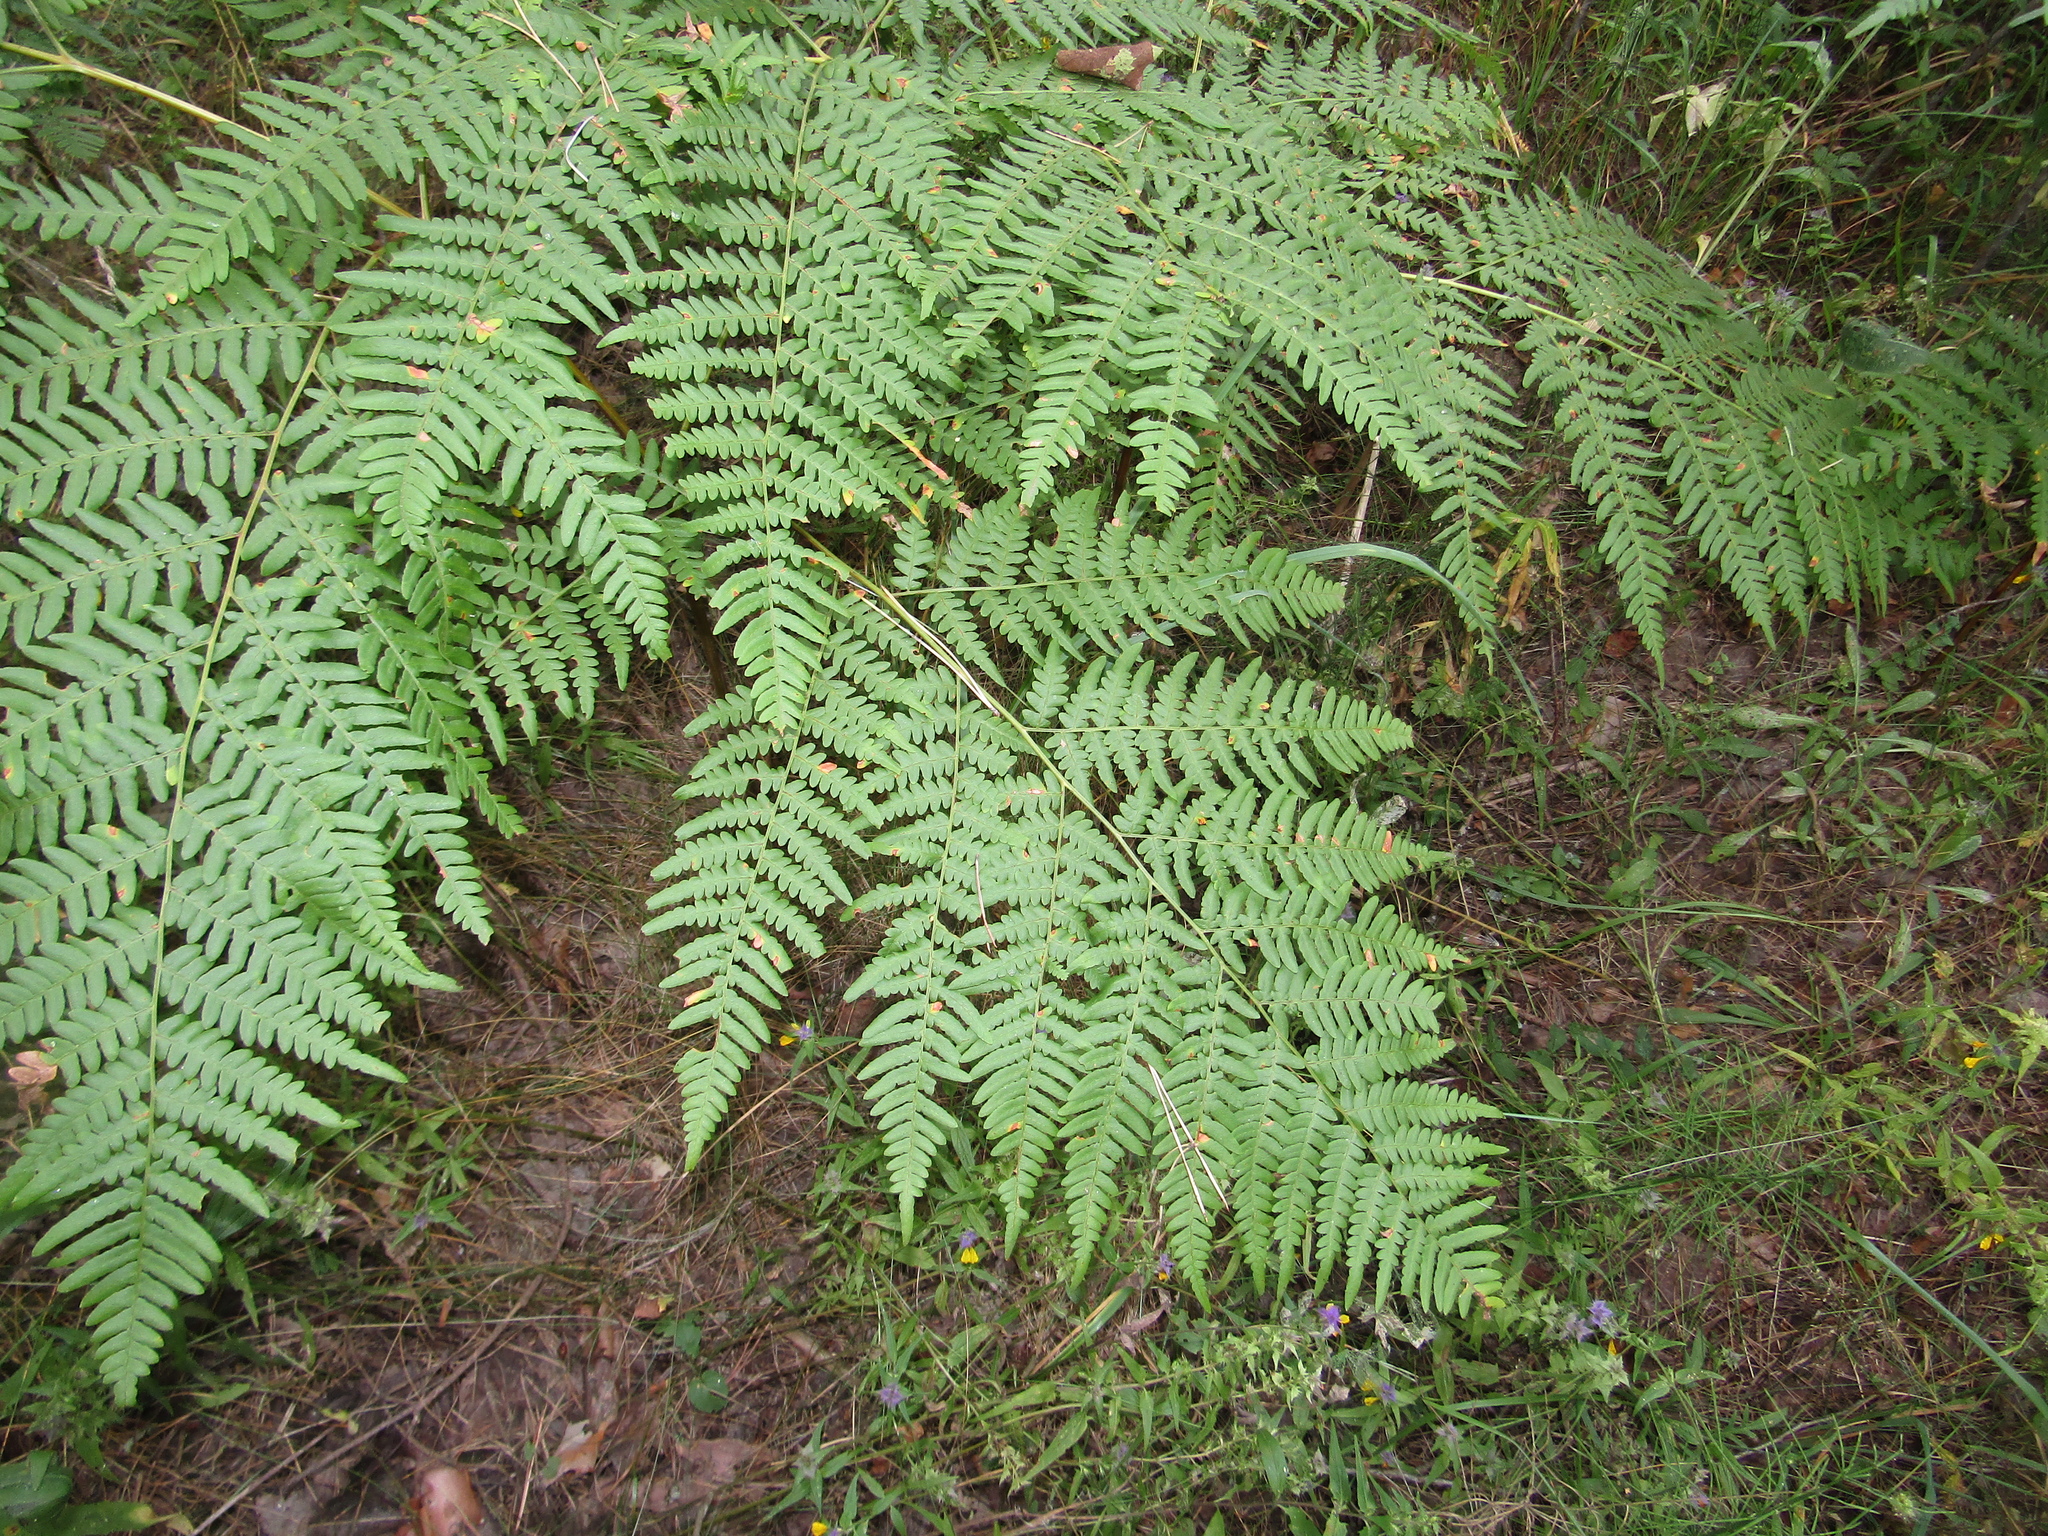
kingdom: Plantae
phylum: Tracheophyta
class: Polypodiopsida
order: Polypodiales
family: Dennstaedtiaceae
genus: Pteridium
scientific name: Pteridium aquilinum
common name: Bracken
